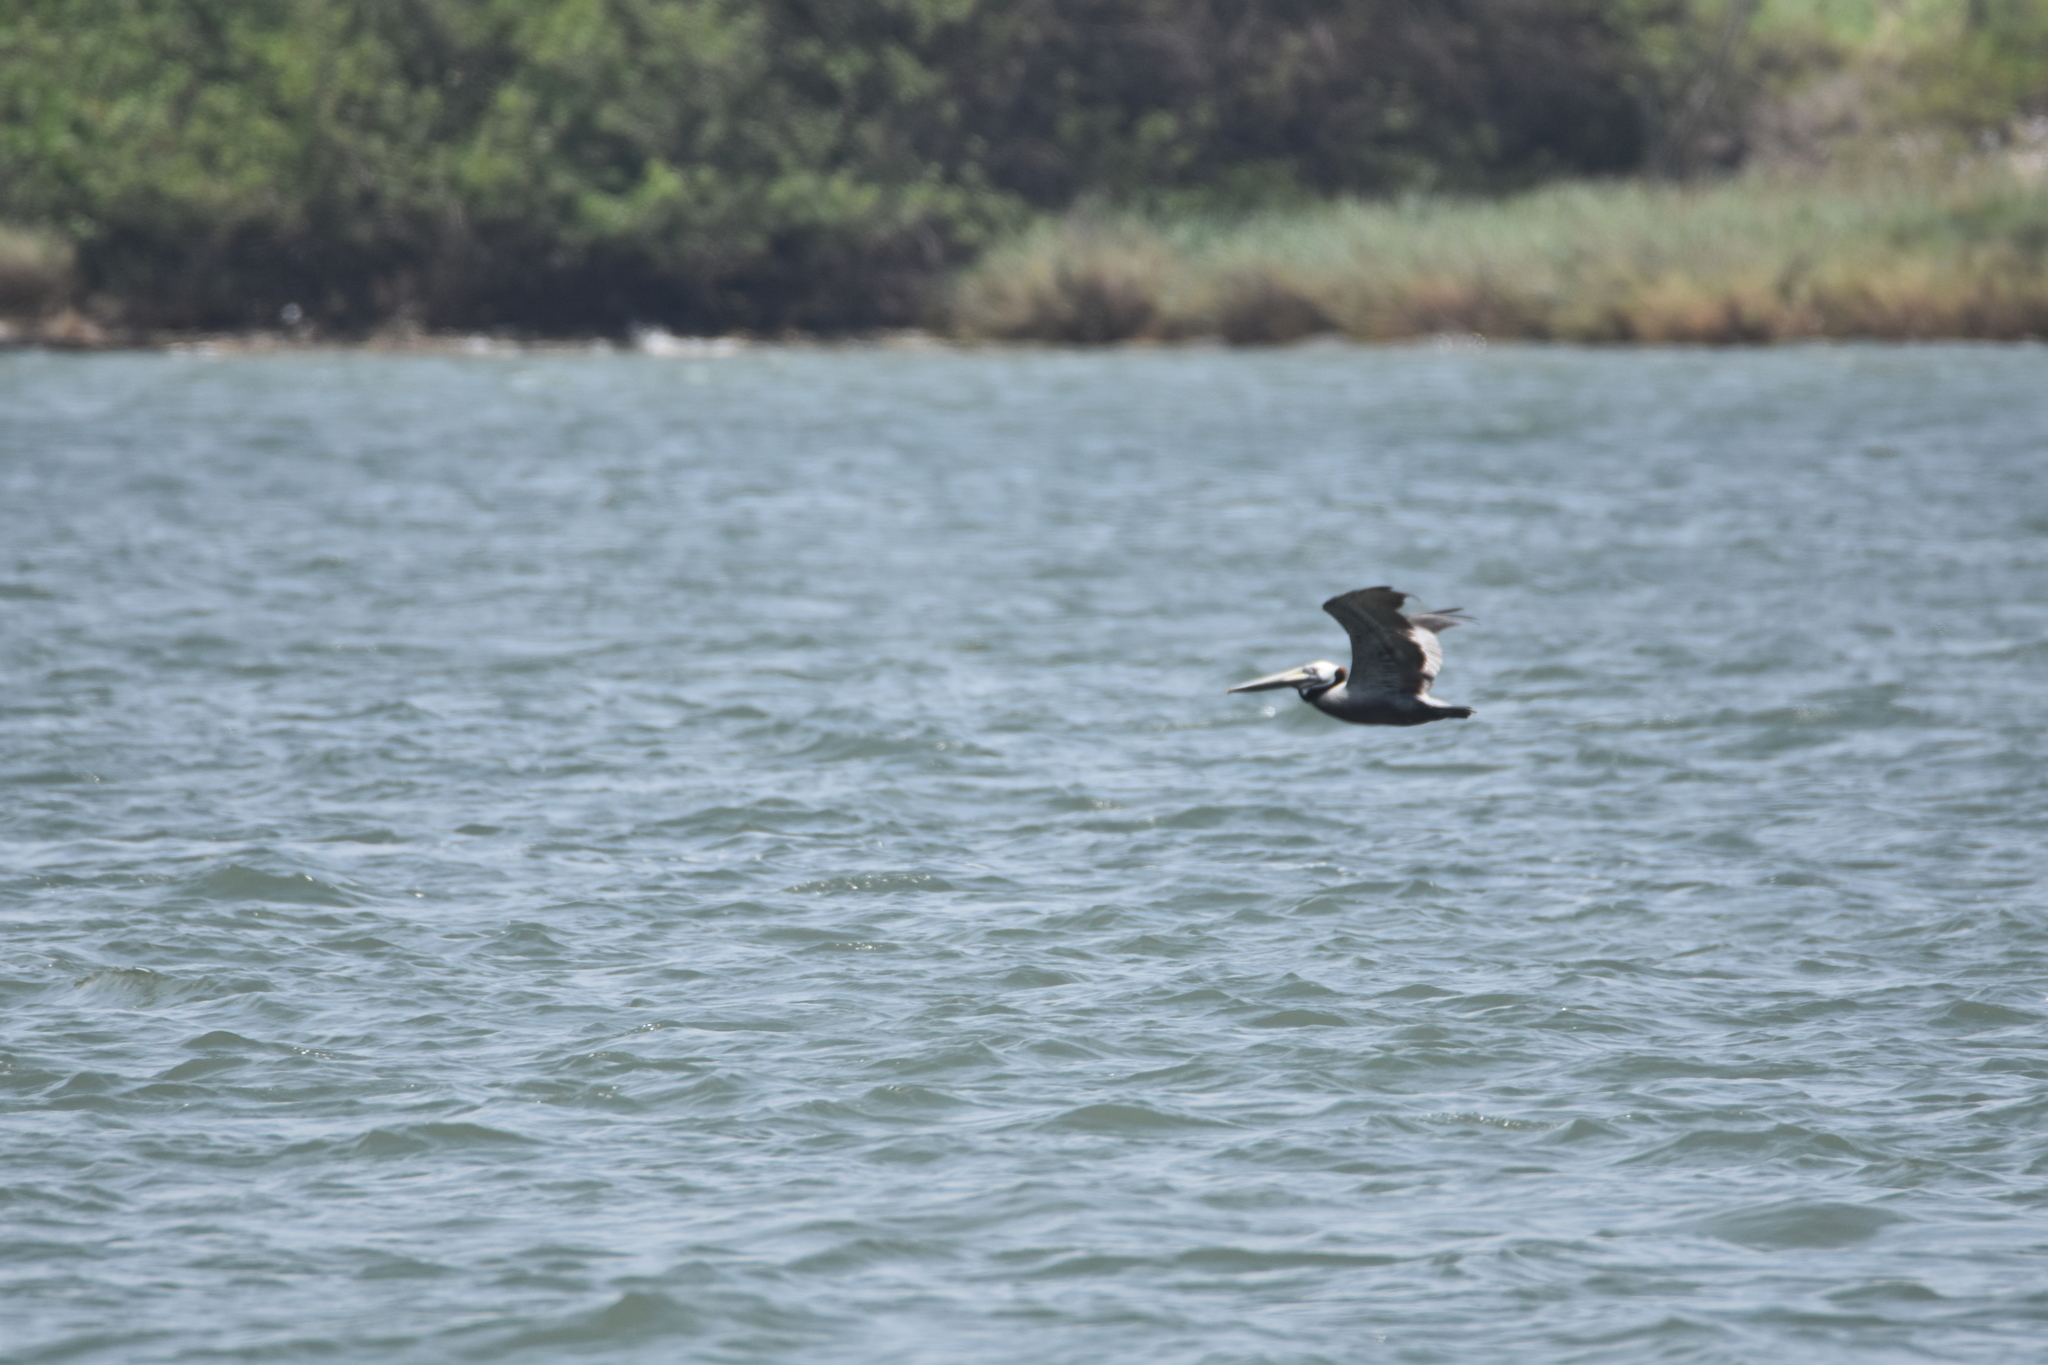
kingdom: Animalia
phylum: Chordata
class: Aves
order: Pelecaniformes
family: Pelecanidae
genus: Pelecanus
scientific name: Pelecanus occidentalis
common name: Brown pelican
